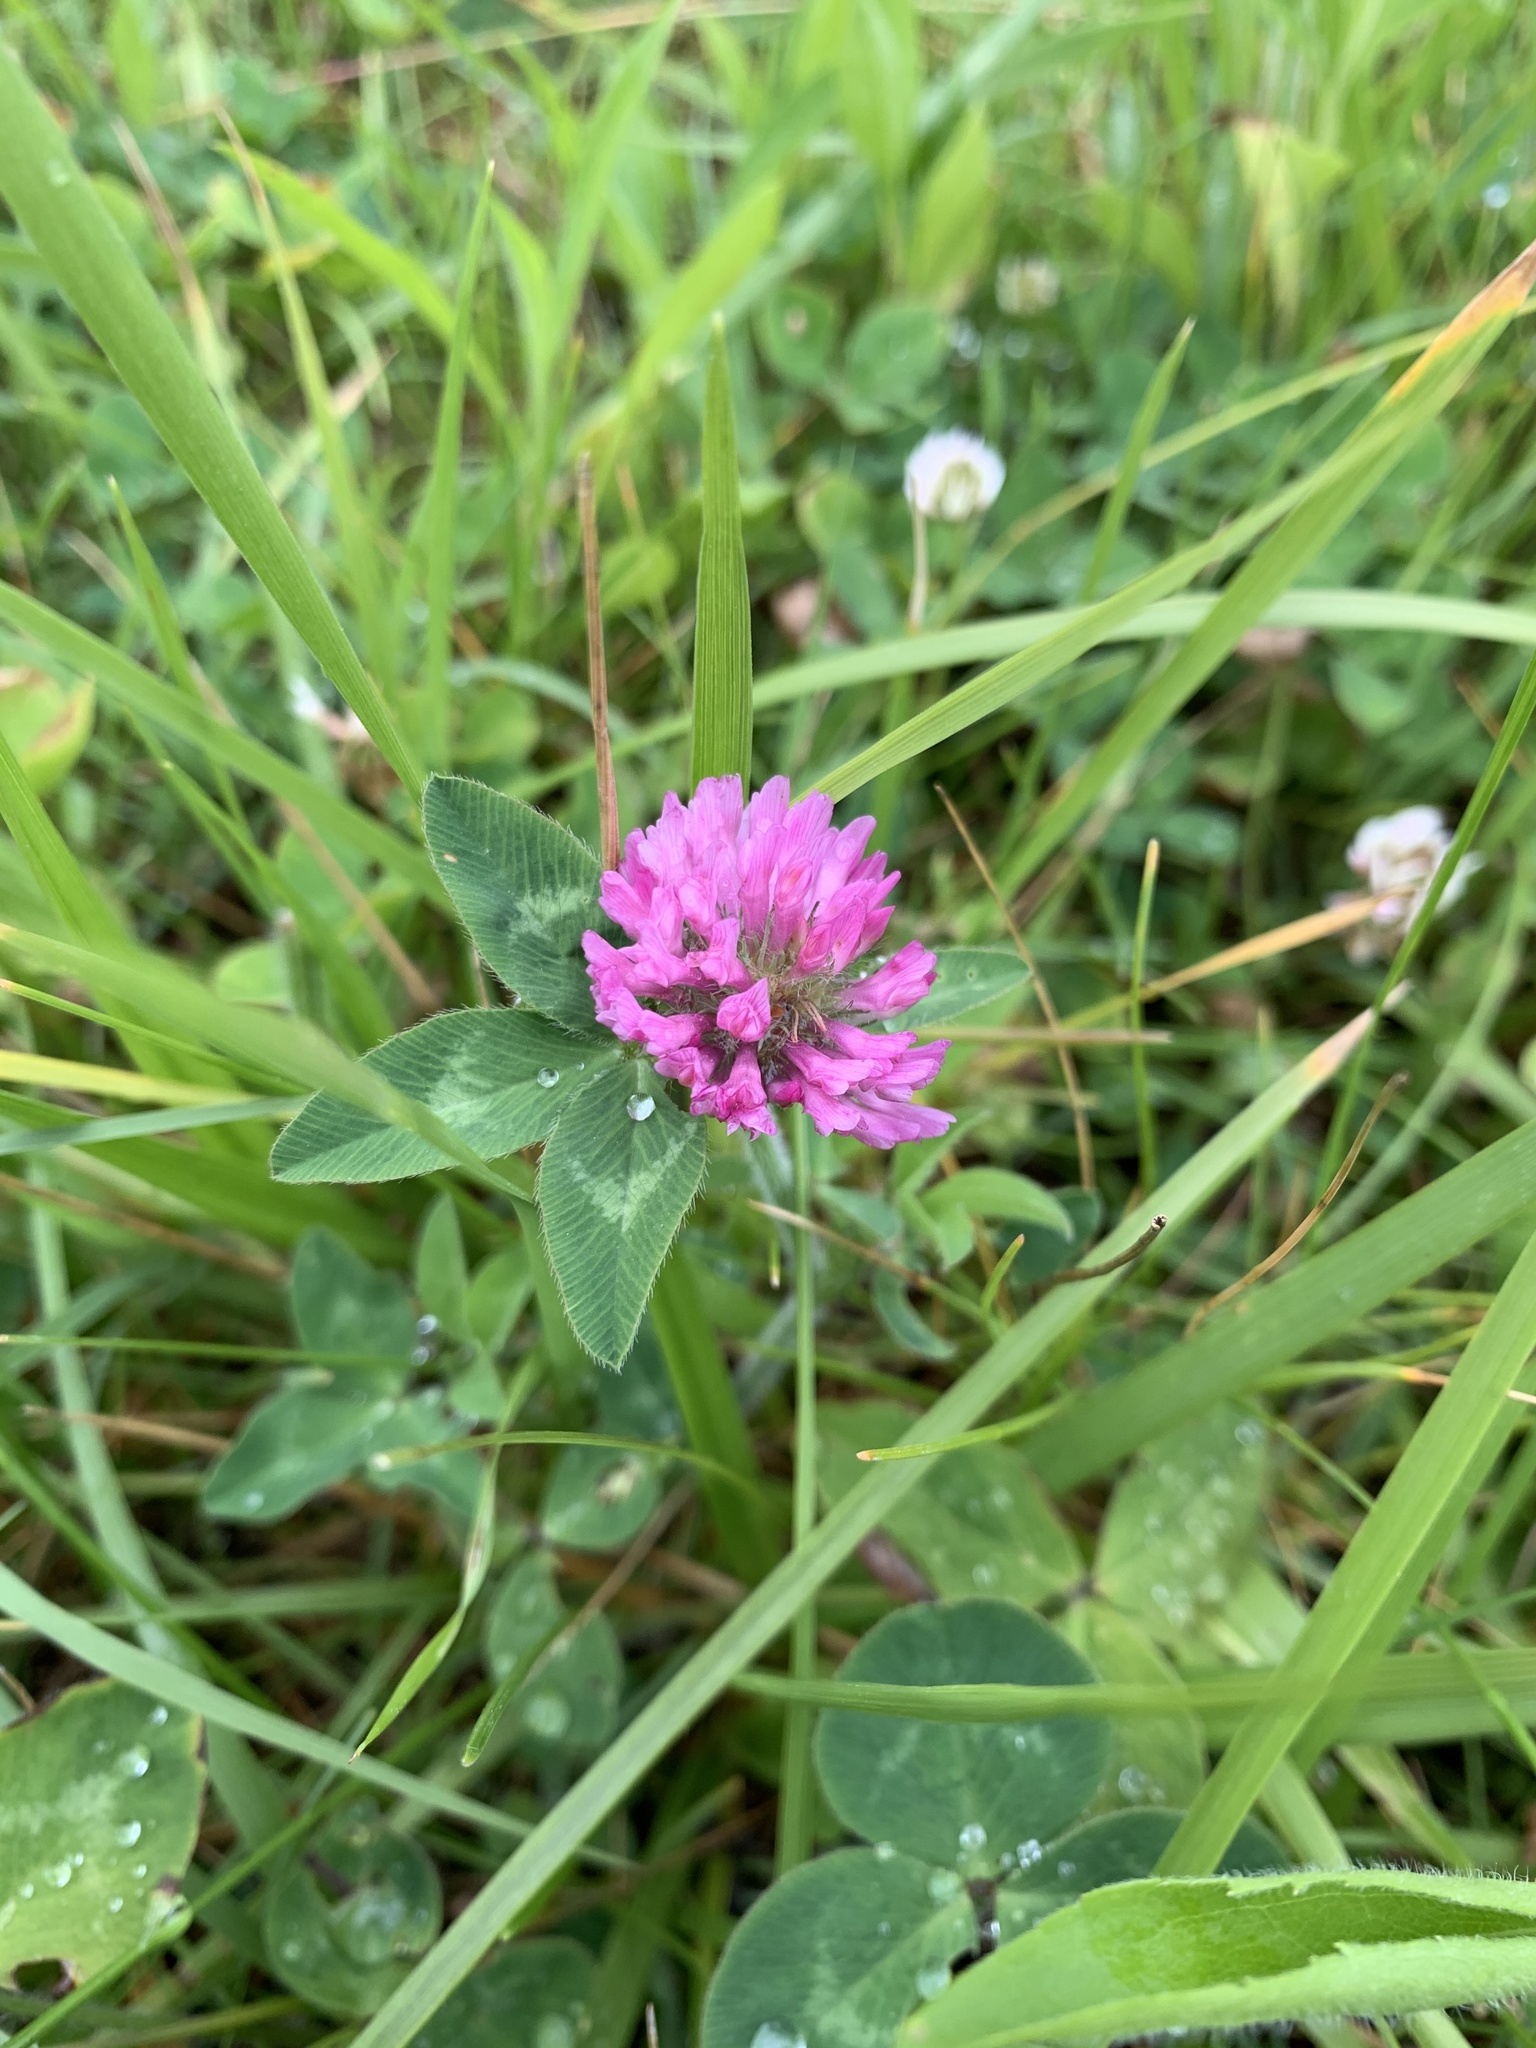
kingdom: Plantae
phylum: Tracheophyta
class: Magnoliopsida
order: Fabales
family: Fabaceae
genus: Trifolium
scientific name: Trifolium pratense
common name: Red clover
